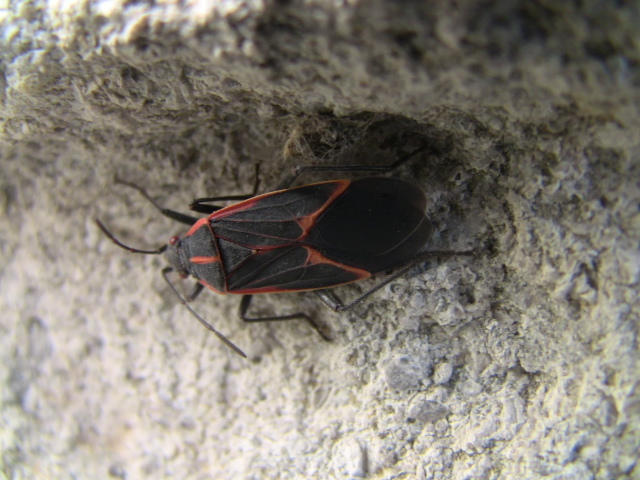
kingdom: Animalia
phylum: Arthropoda
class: Insecta
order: Hemiptera
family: Rhopalidae
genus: Boisea
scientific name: Boisea trivittata
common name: Boxelder bug
